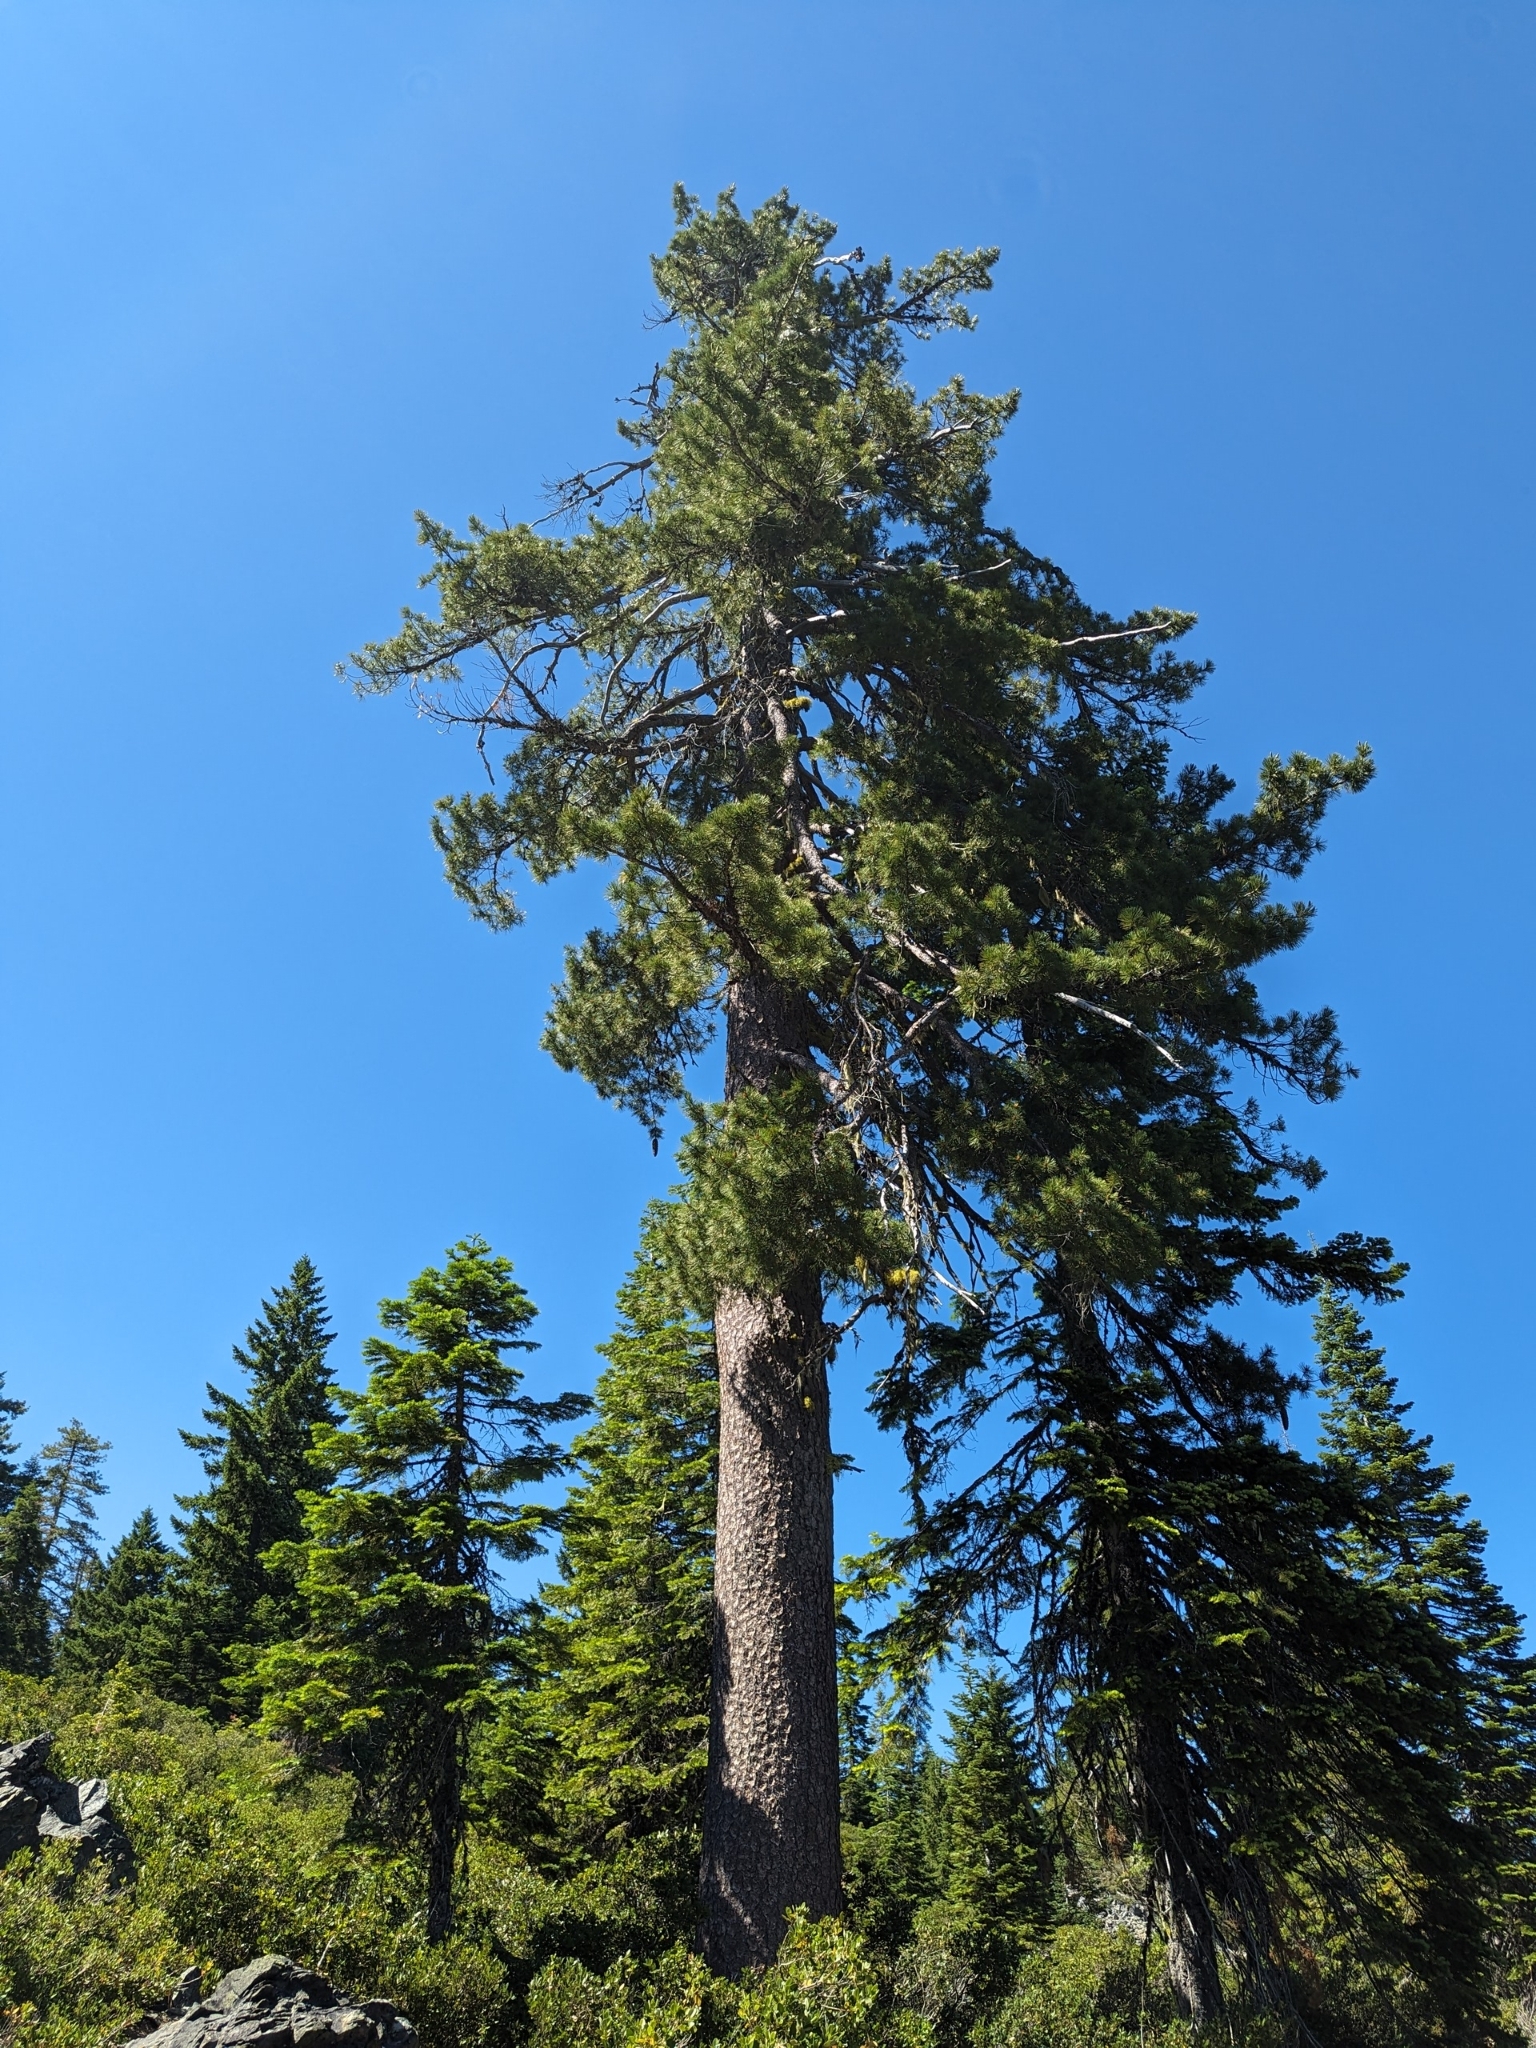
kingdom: Plantae
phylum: Tracheophyta
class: Pinopsida
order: Pinales
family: Pinaceae
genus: Pinus
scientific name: Pinus lambertiana
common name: Sugar pine
